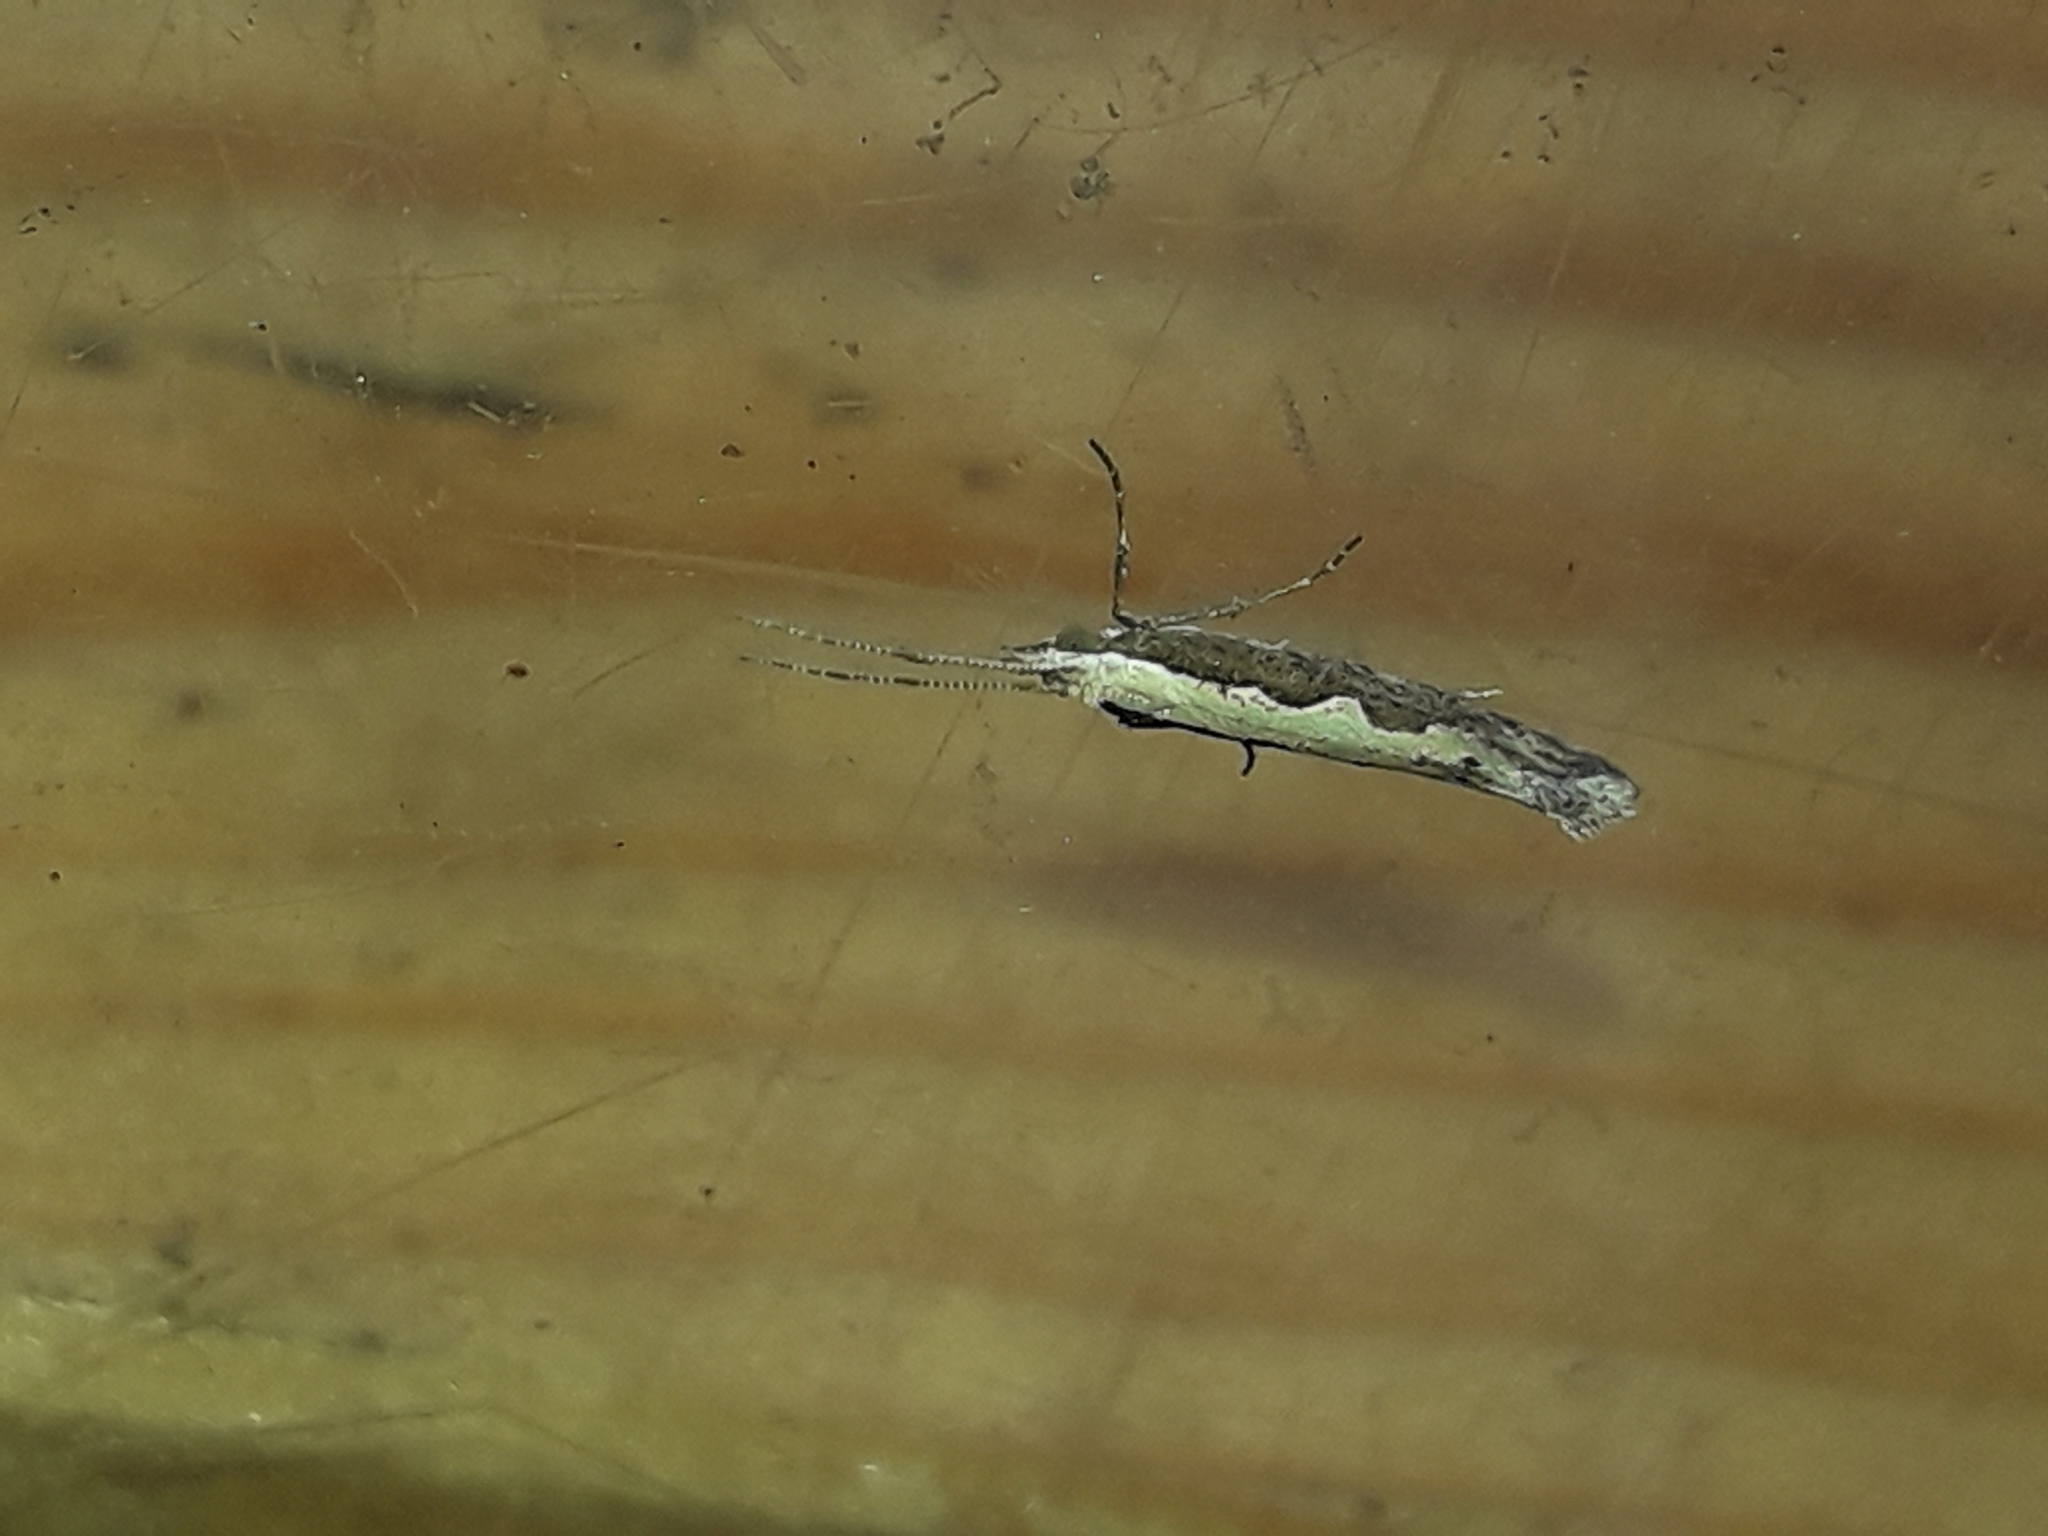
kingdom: Animalia
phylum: Arthropoda
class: Insecta
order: Lepidoptera
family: Plutellidae
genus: Plutella
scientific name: Plutella xylostella
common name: Diamond-back moth
